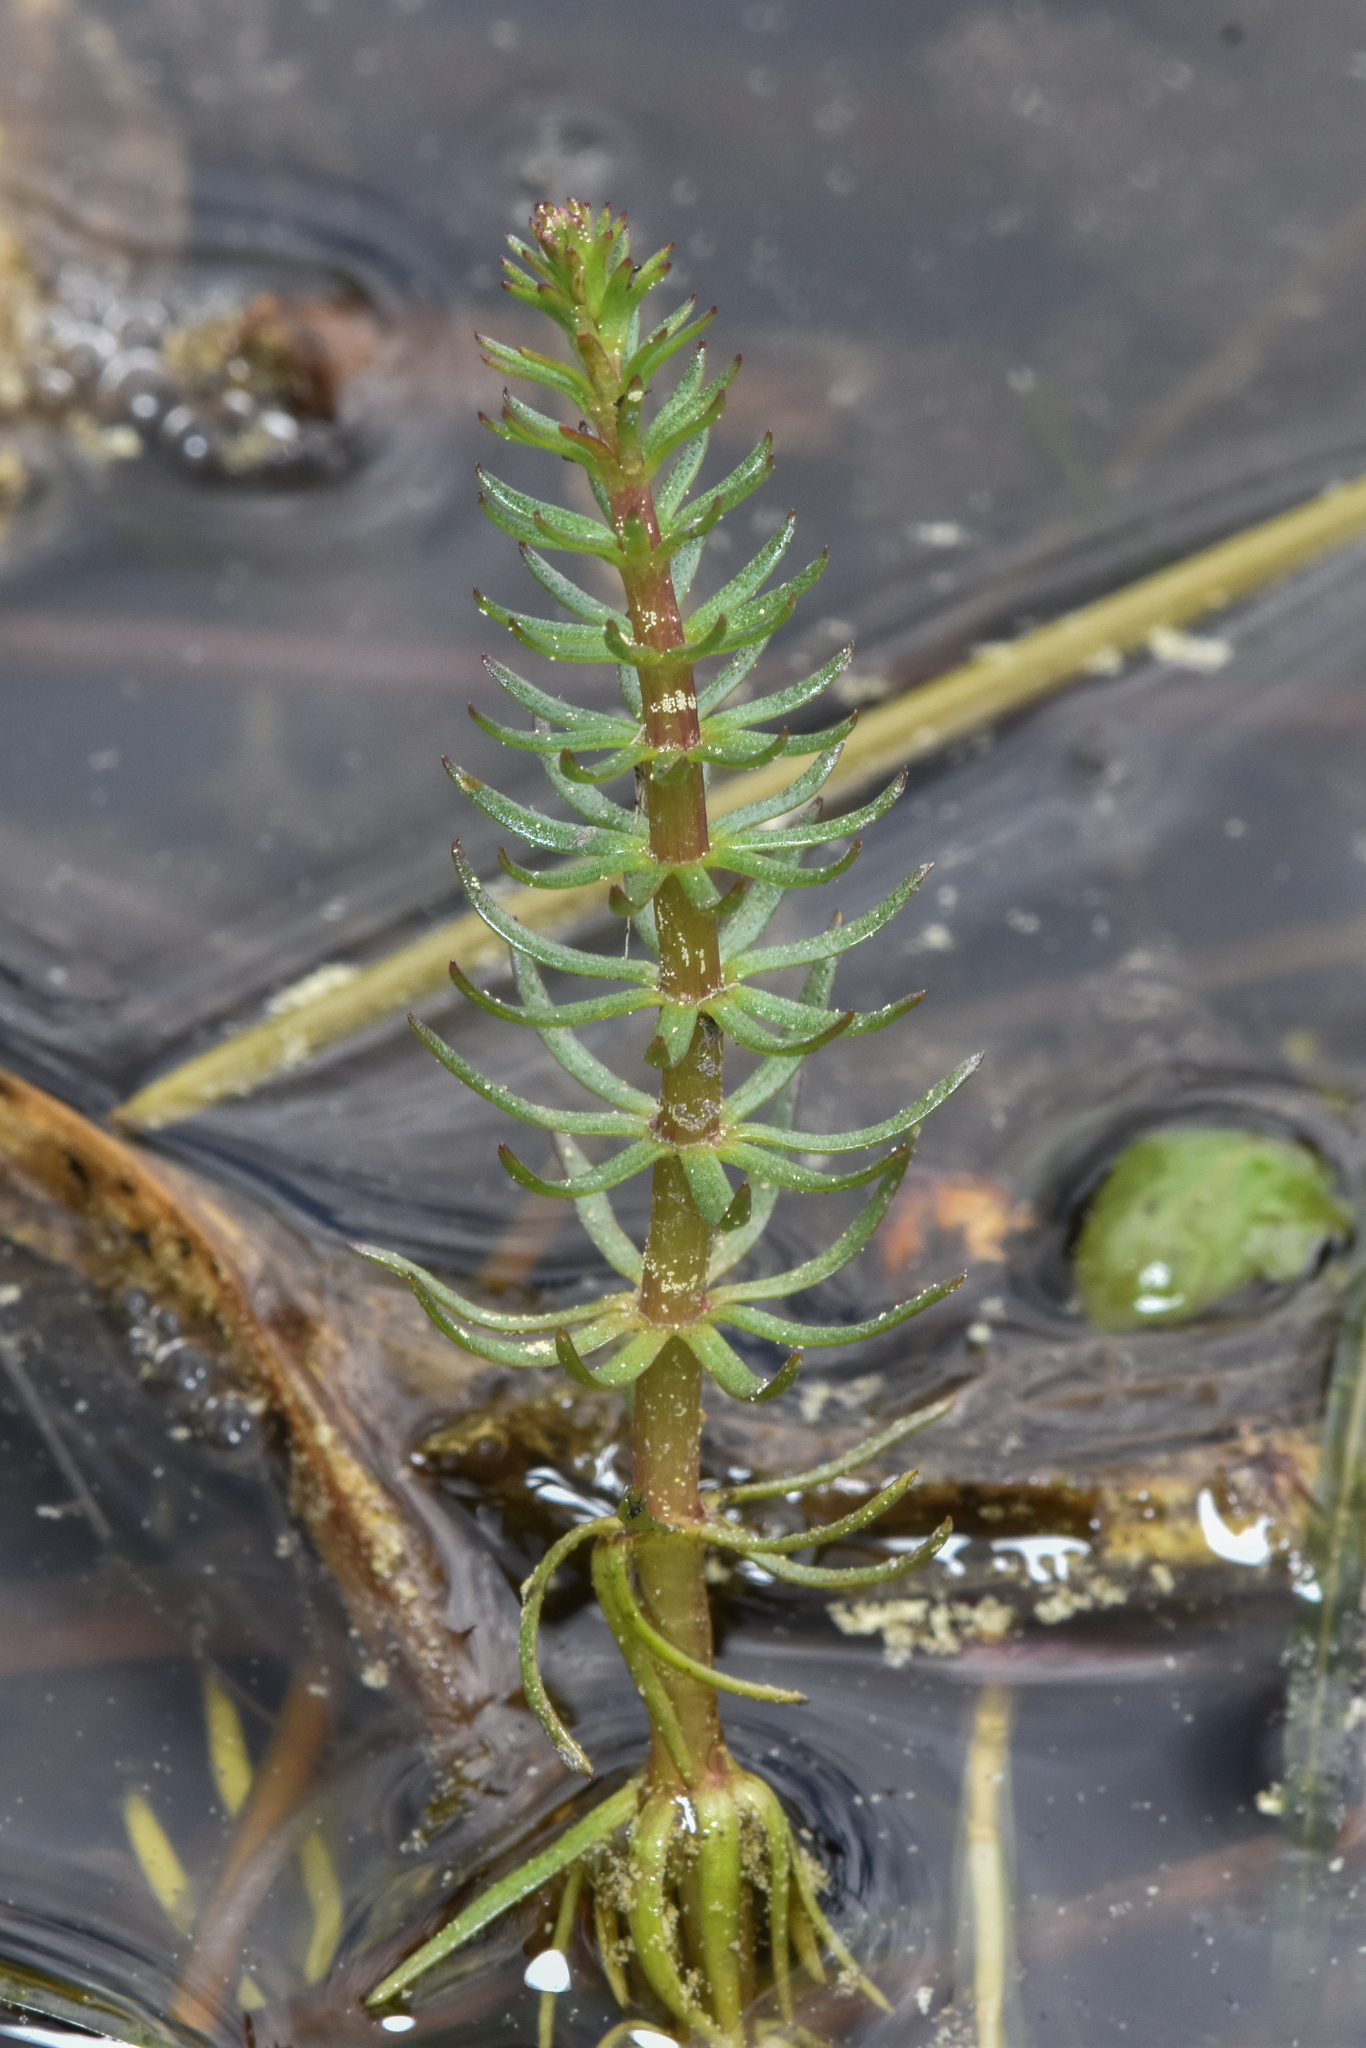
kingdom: Plantae
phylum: Tracheophyta
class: Magnoliopsida
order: Lamiales
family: Plantaginaceae
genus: Hippuris
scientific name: Hippuris vulgaris
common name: Mare's-tail
